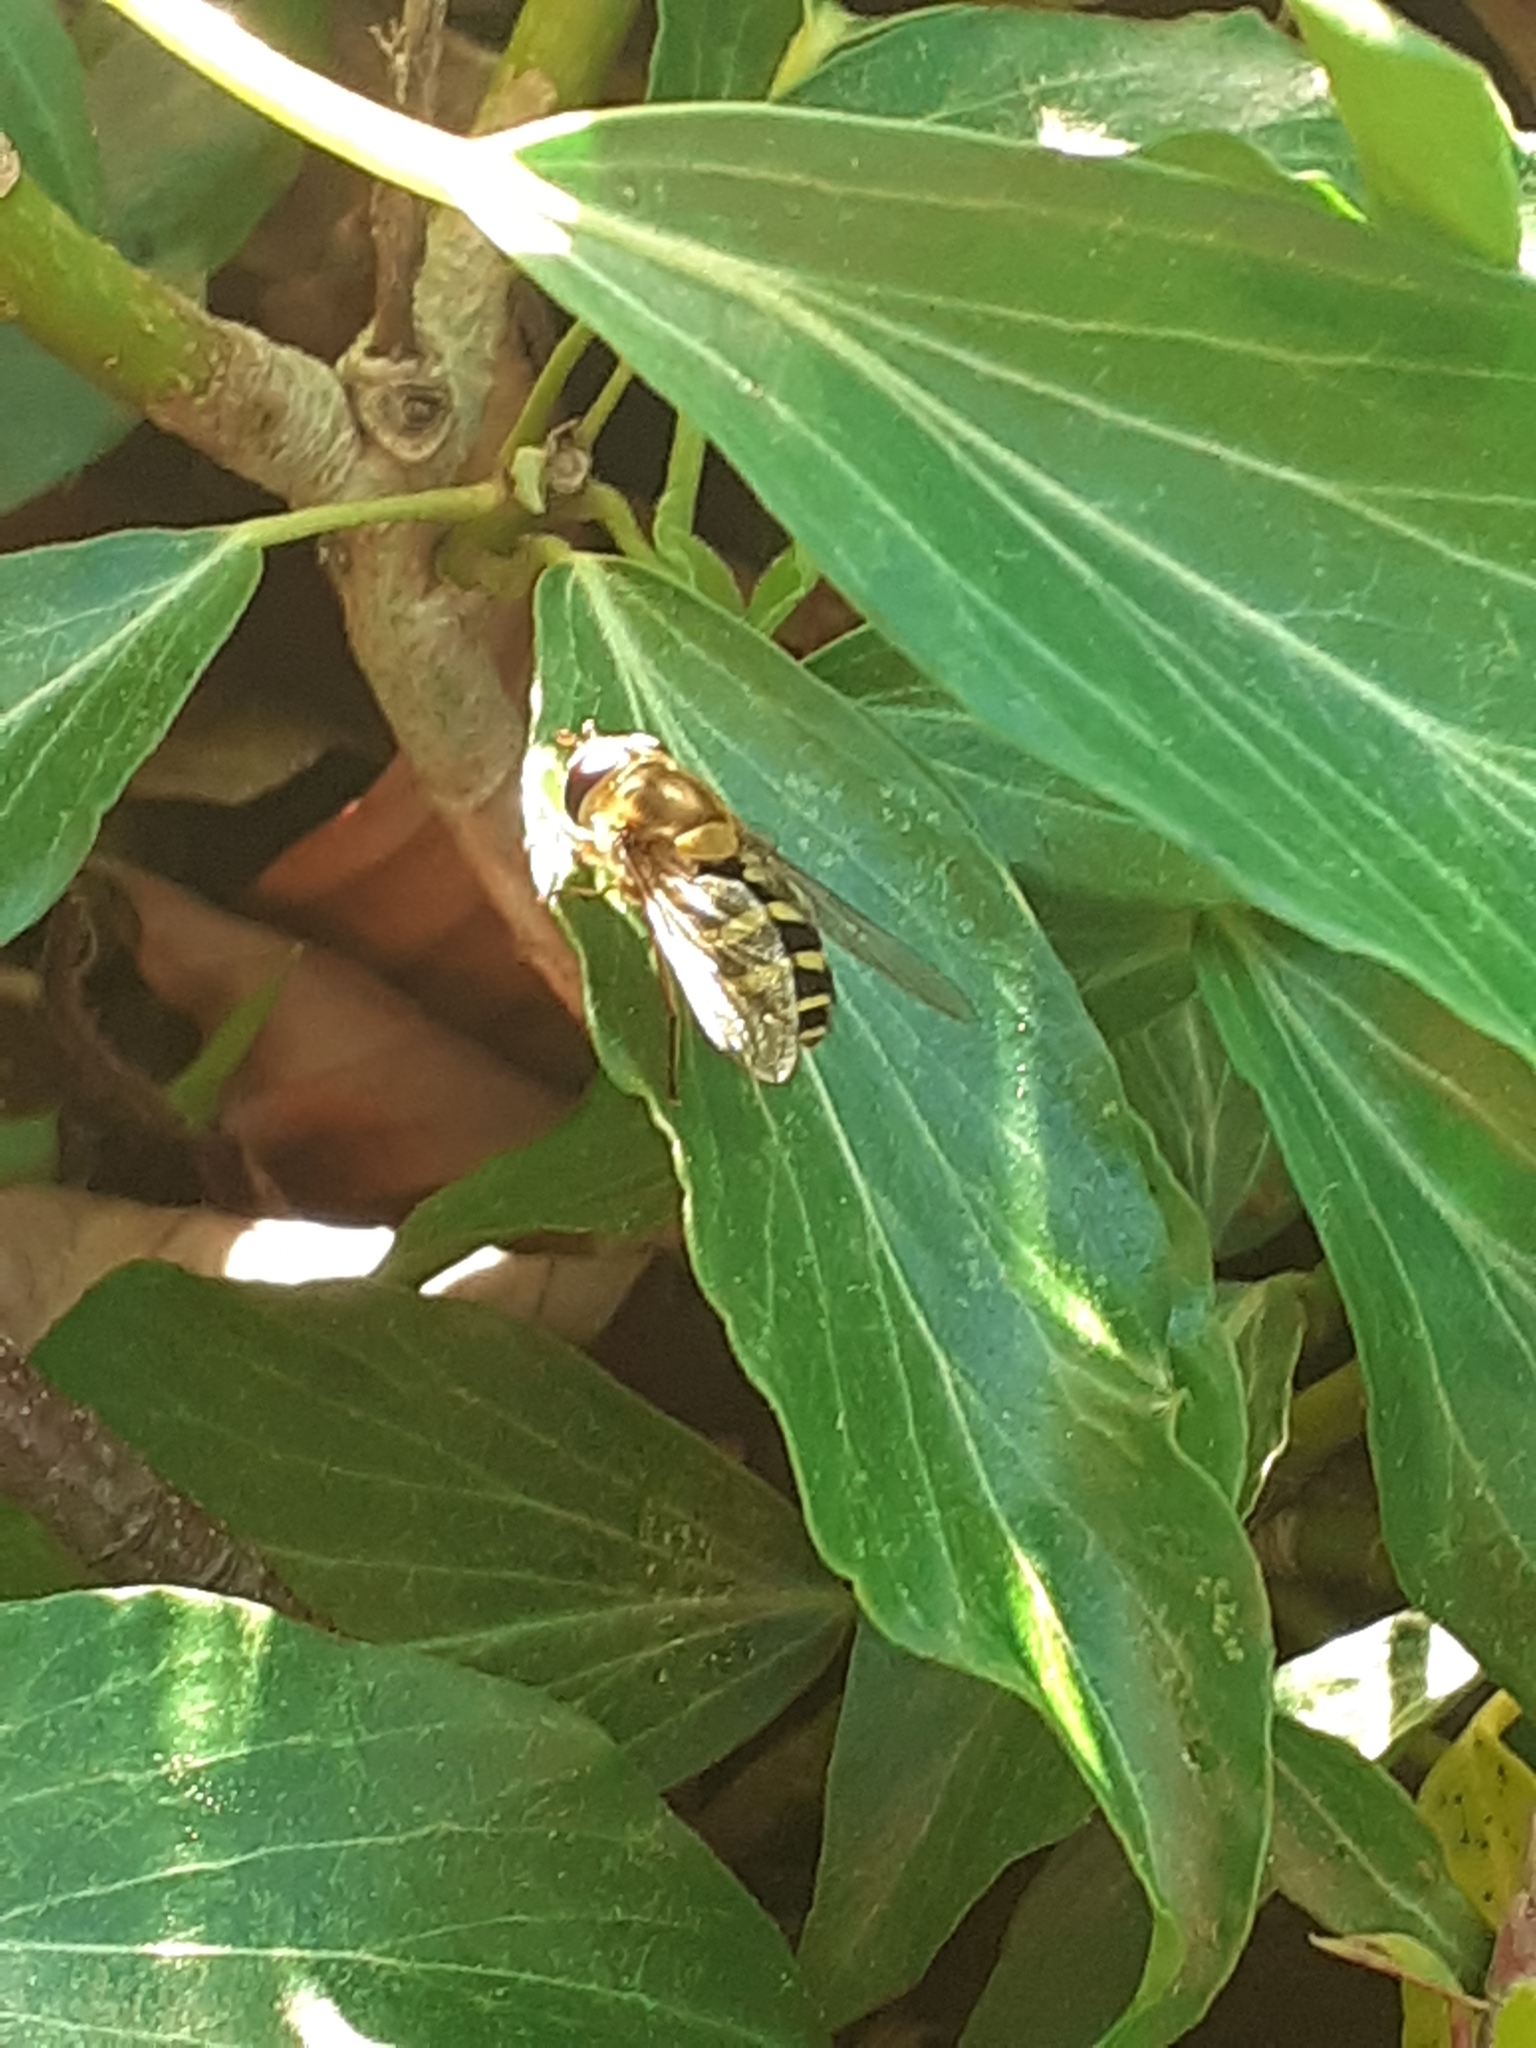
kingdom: Animalia
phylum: Arthropoda
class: Insecta
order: Diptera
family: Syrphidae
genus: Syrphus
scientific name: Syrphus
